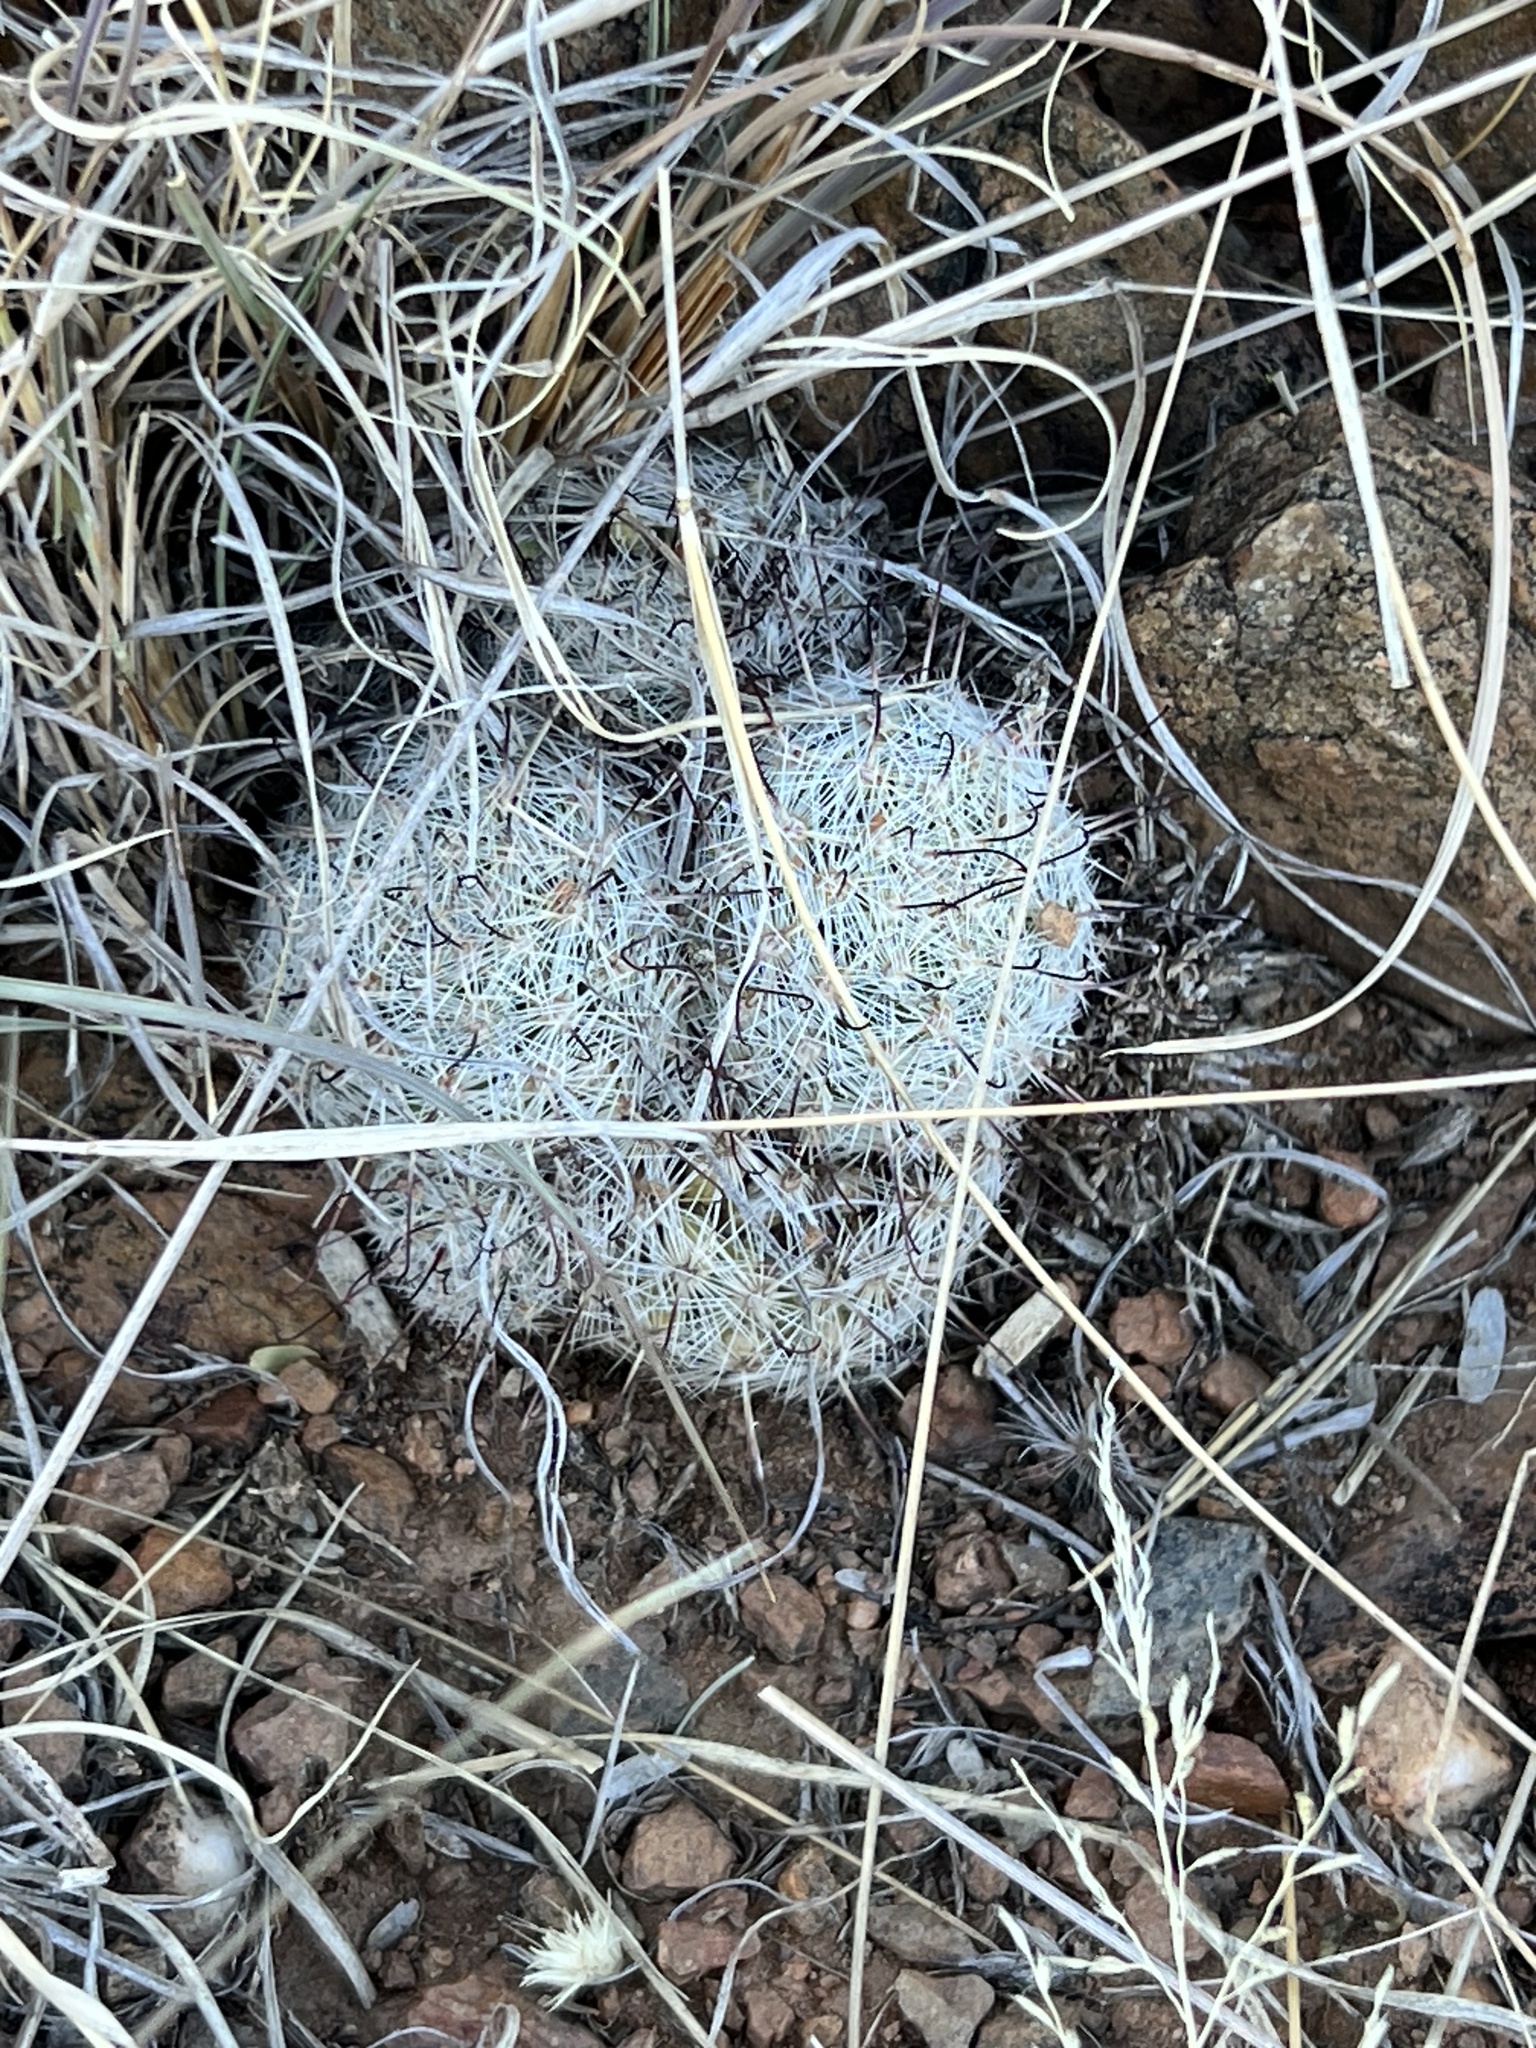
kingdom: Plantae
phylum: Tracheophyta
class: Magnoliopsida
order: Caryophyllales
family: Cactaceae
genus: Cochemiea
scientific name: Cochemiea grahamii
